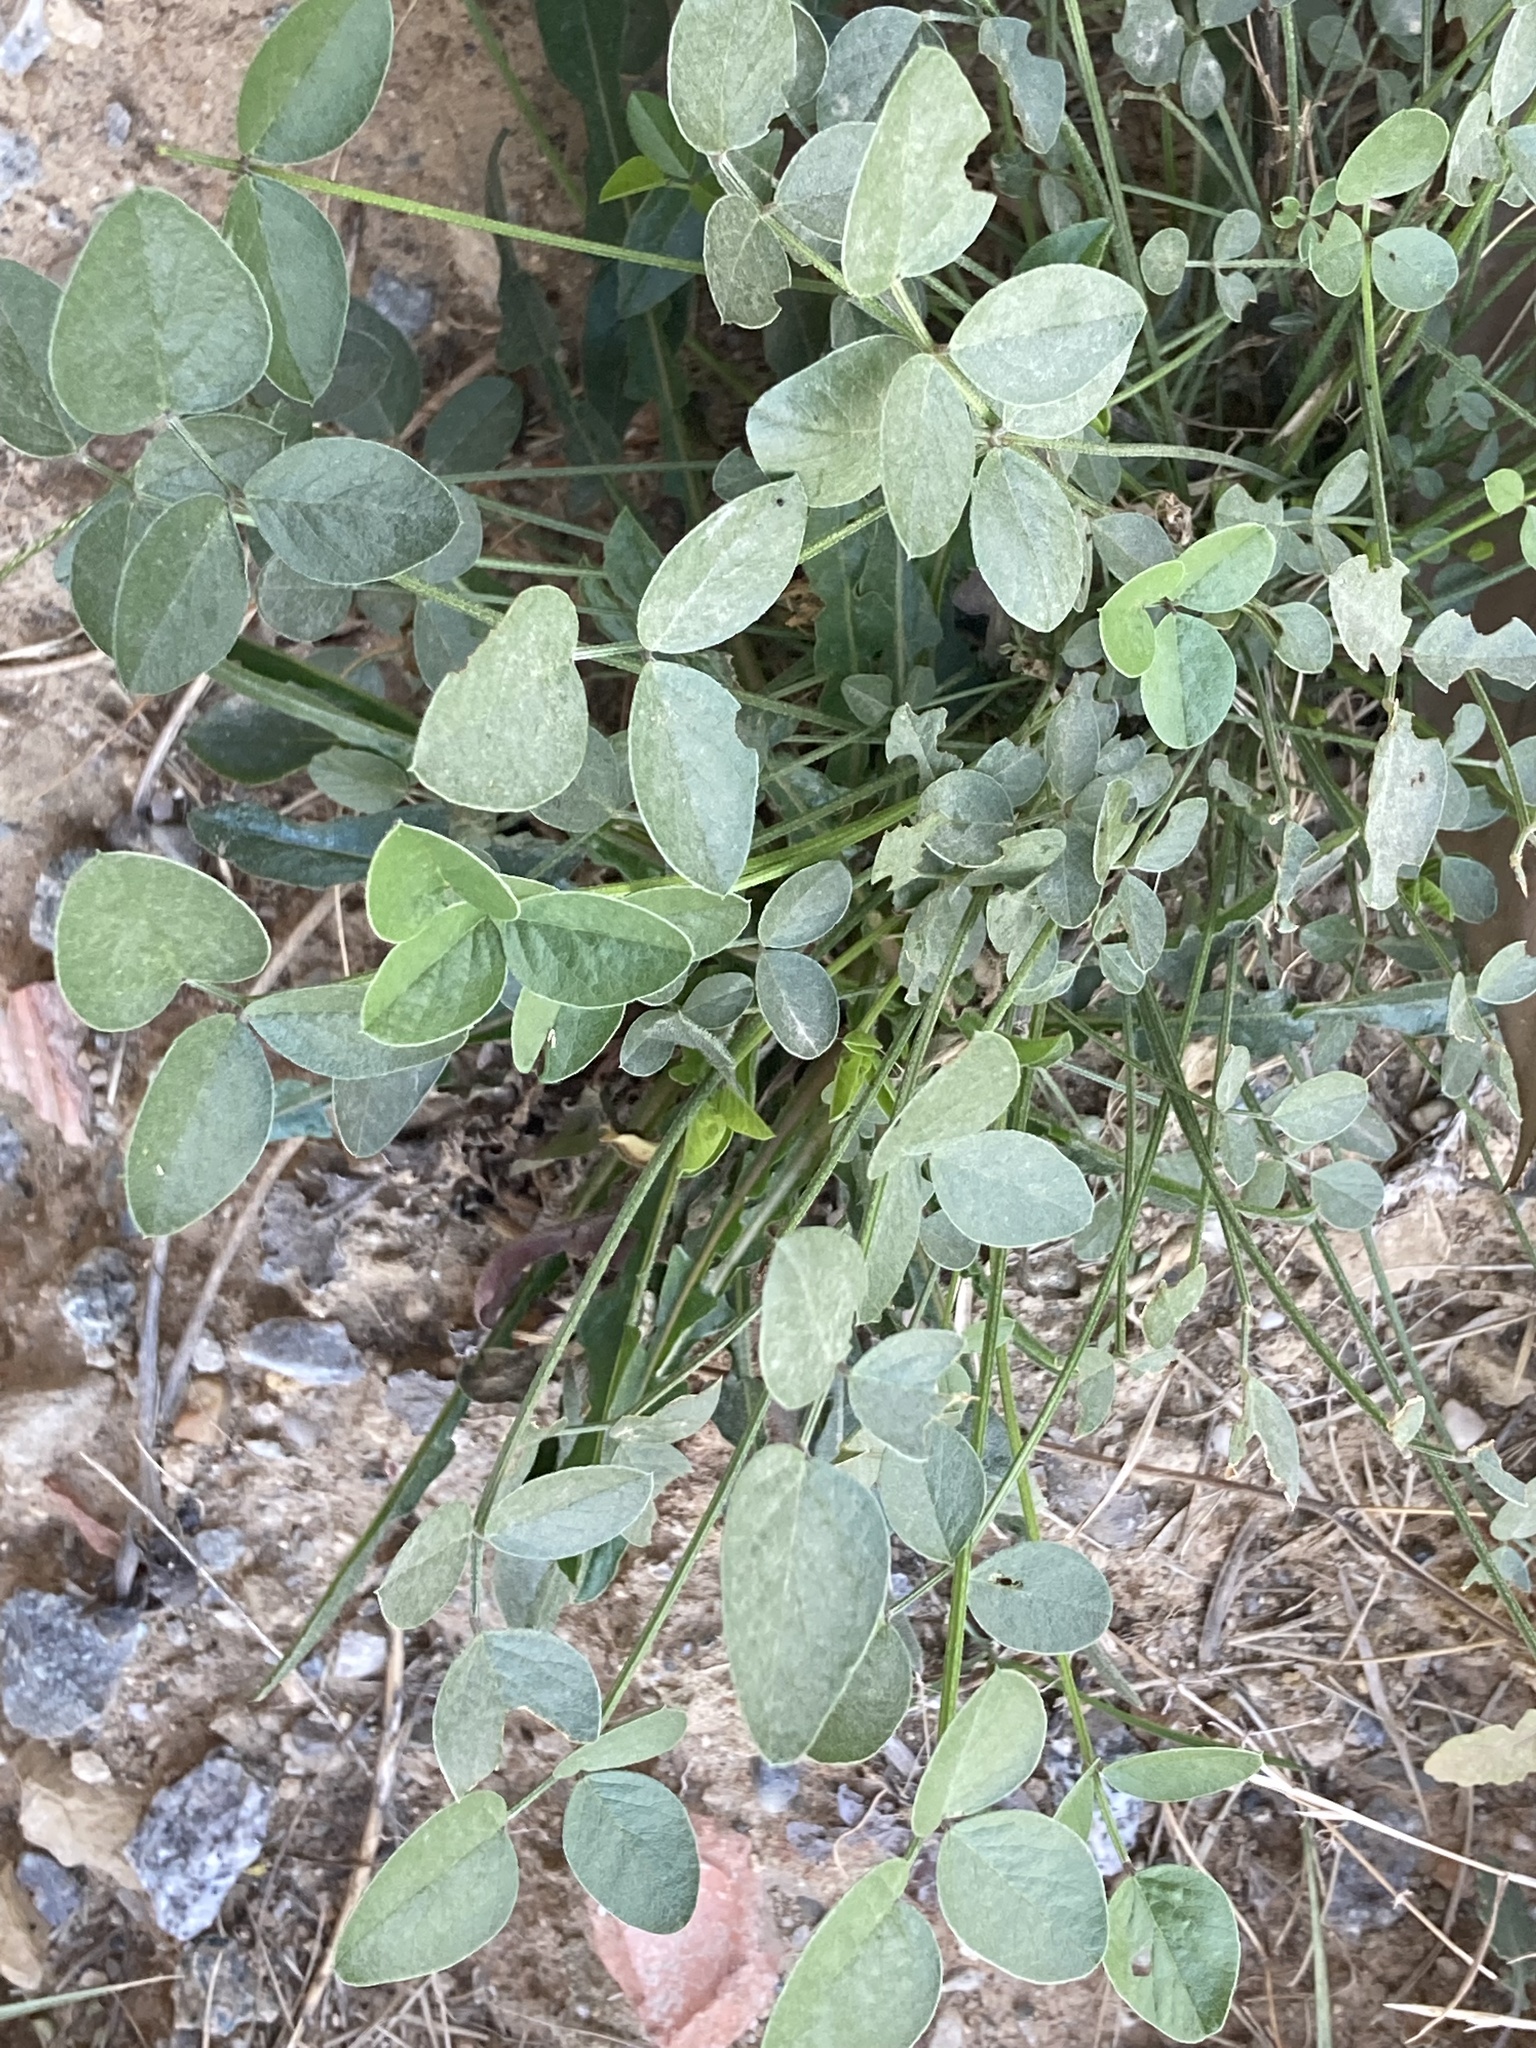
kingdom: Plantae
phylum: Tracheophyta
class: Magnoliopsida
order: Fabales
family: Fabaceae
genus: Bituminaria
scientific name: Bituminaria bituminosa
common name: Arabian pea
